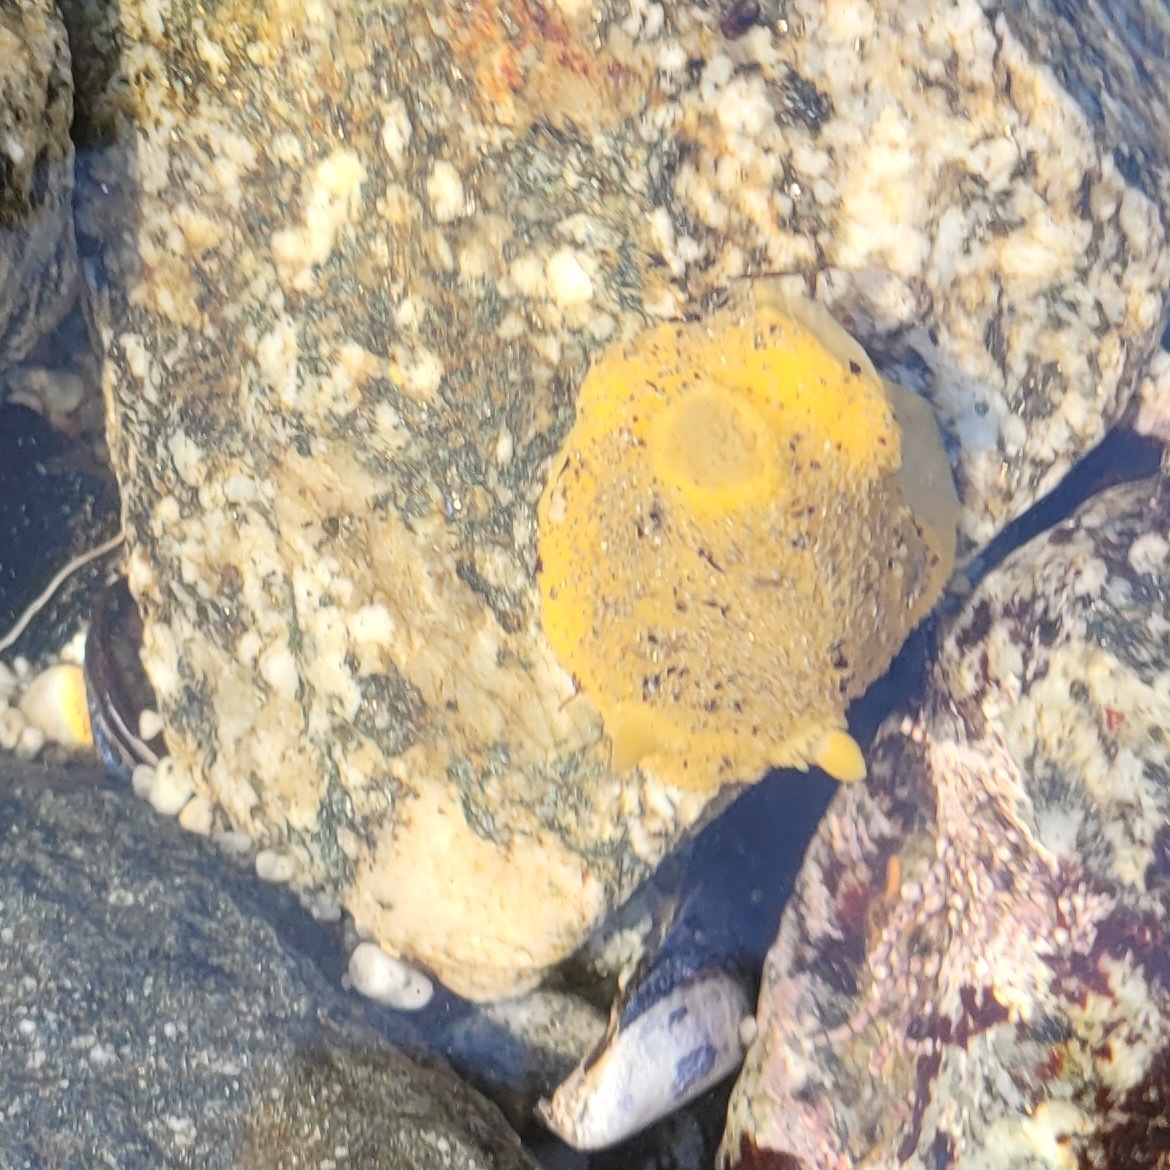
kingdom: Animalia
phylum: Mollusca
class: Gastropoda
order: Nudibranchia
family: Dorididae
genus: Doris
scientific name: Doris montereyensis
